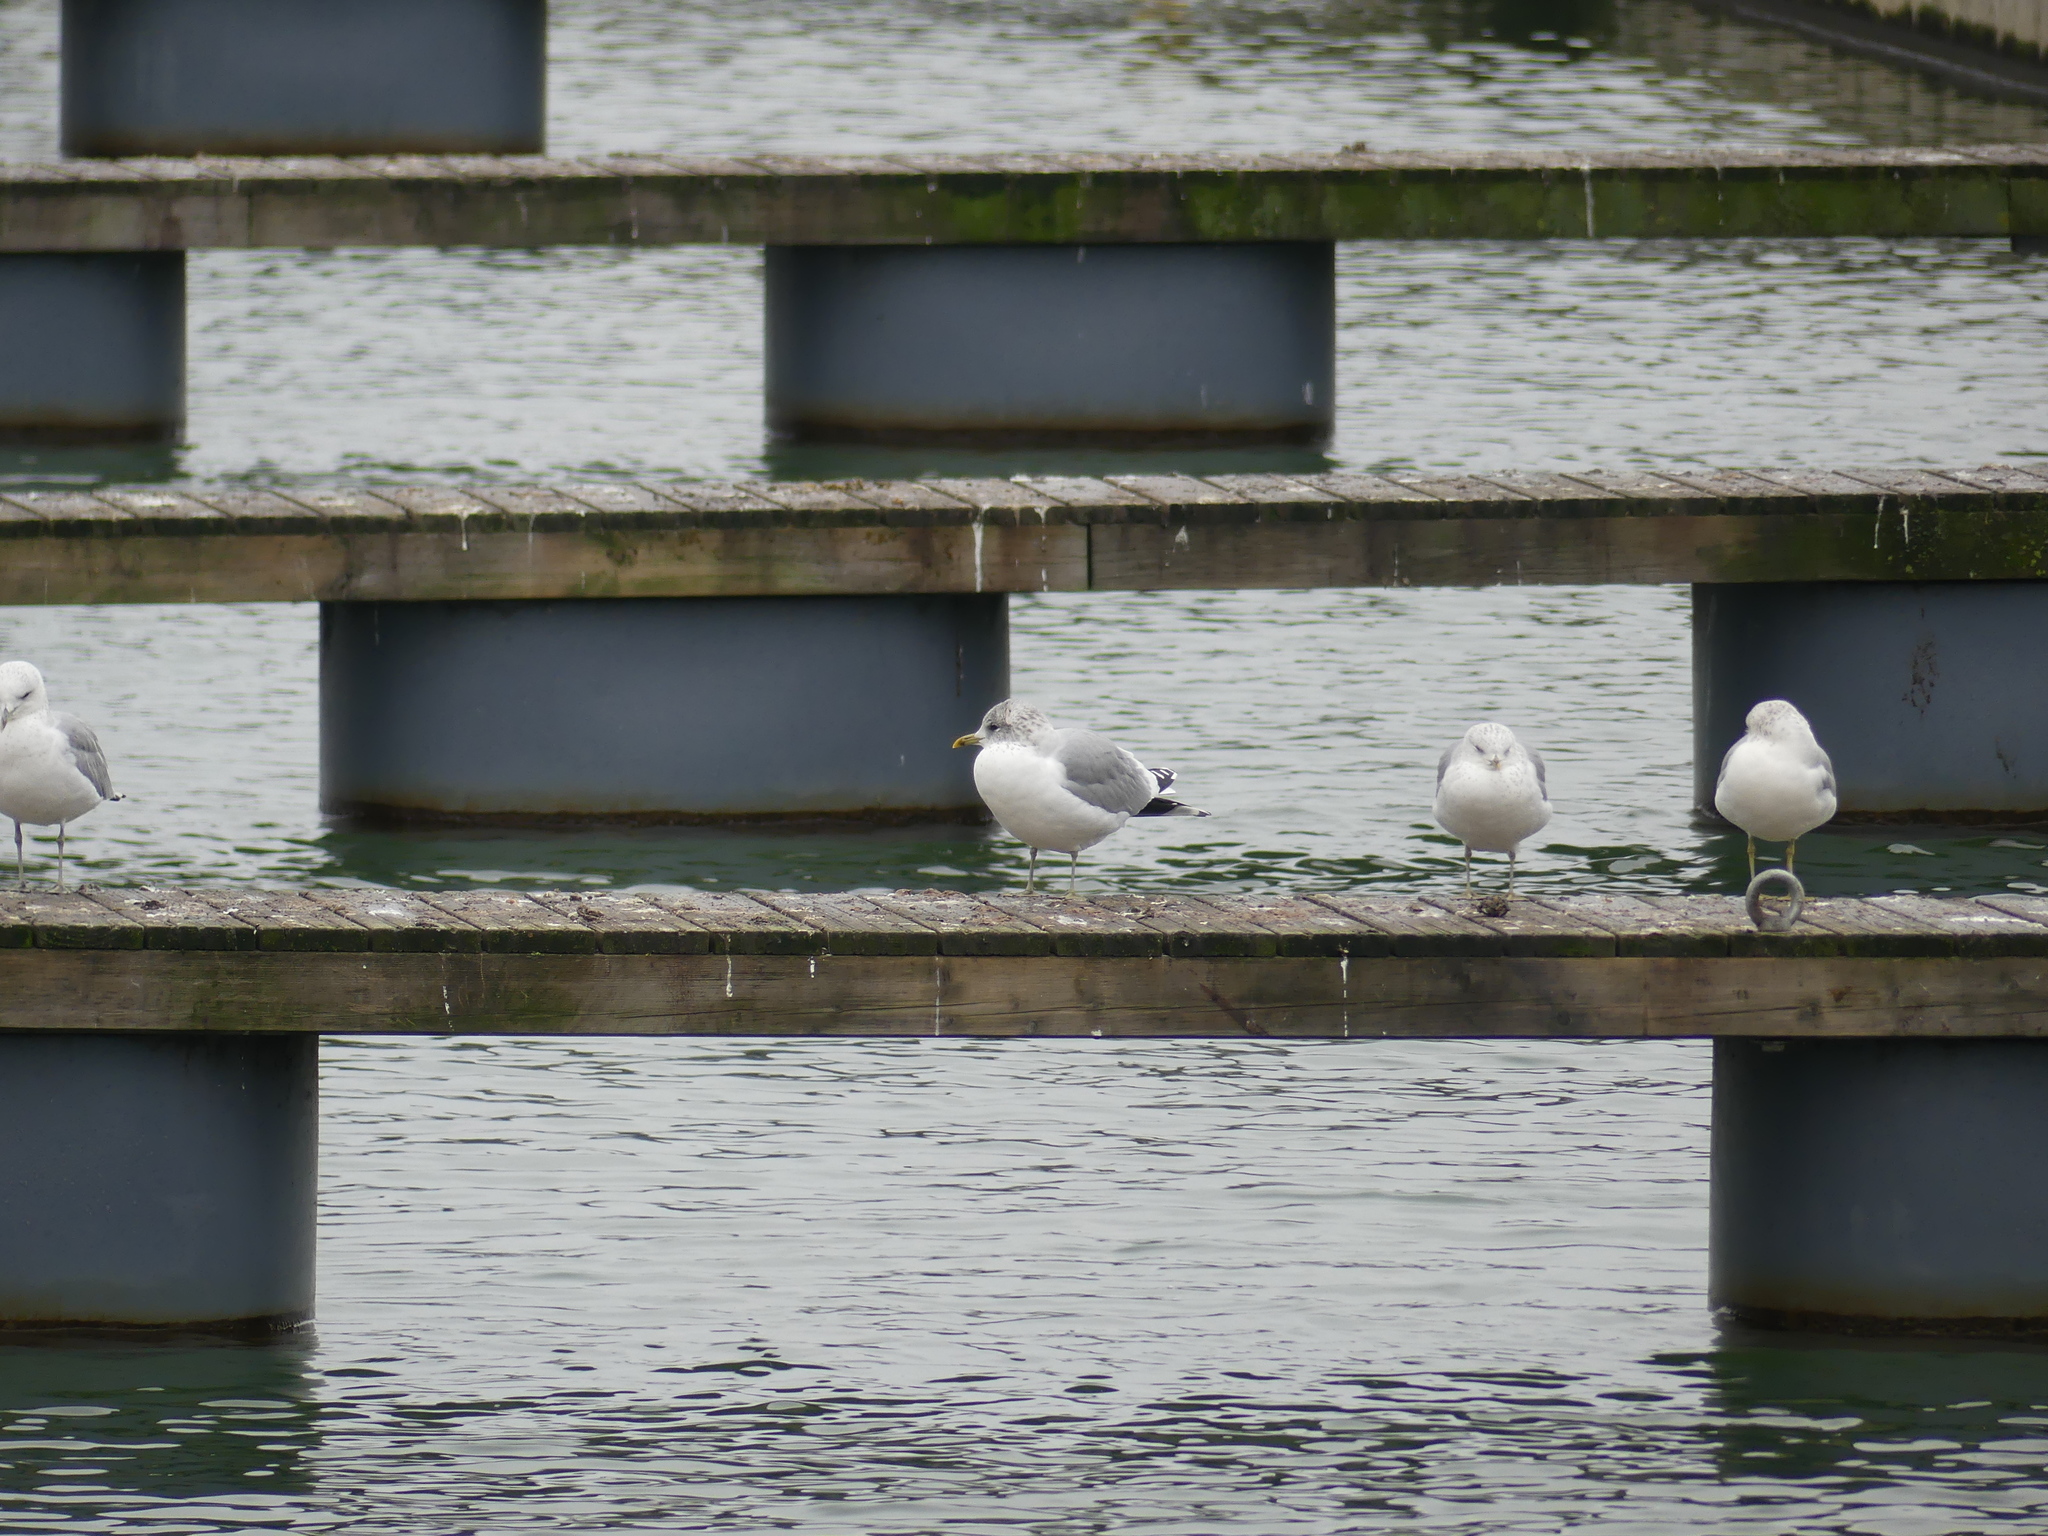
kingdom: Animalia
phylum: Chordata
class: Aves
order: Charadriiformes
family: Laridae
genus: Larus
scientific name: Larus canus
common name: Mew gull
